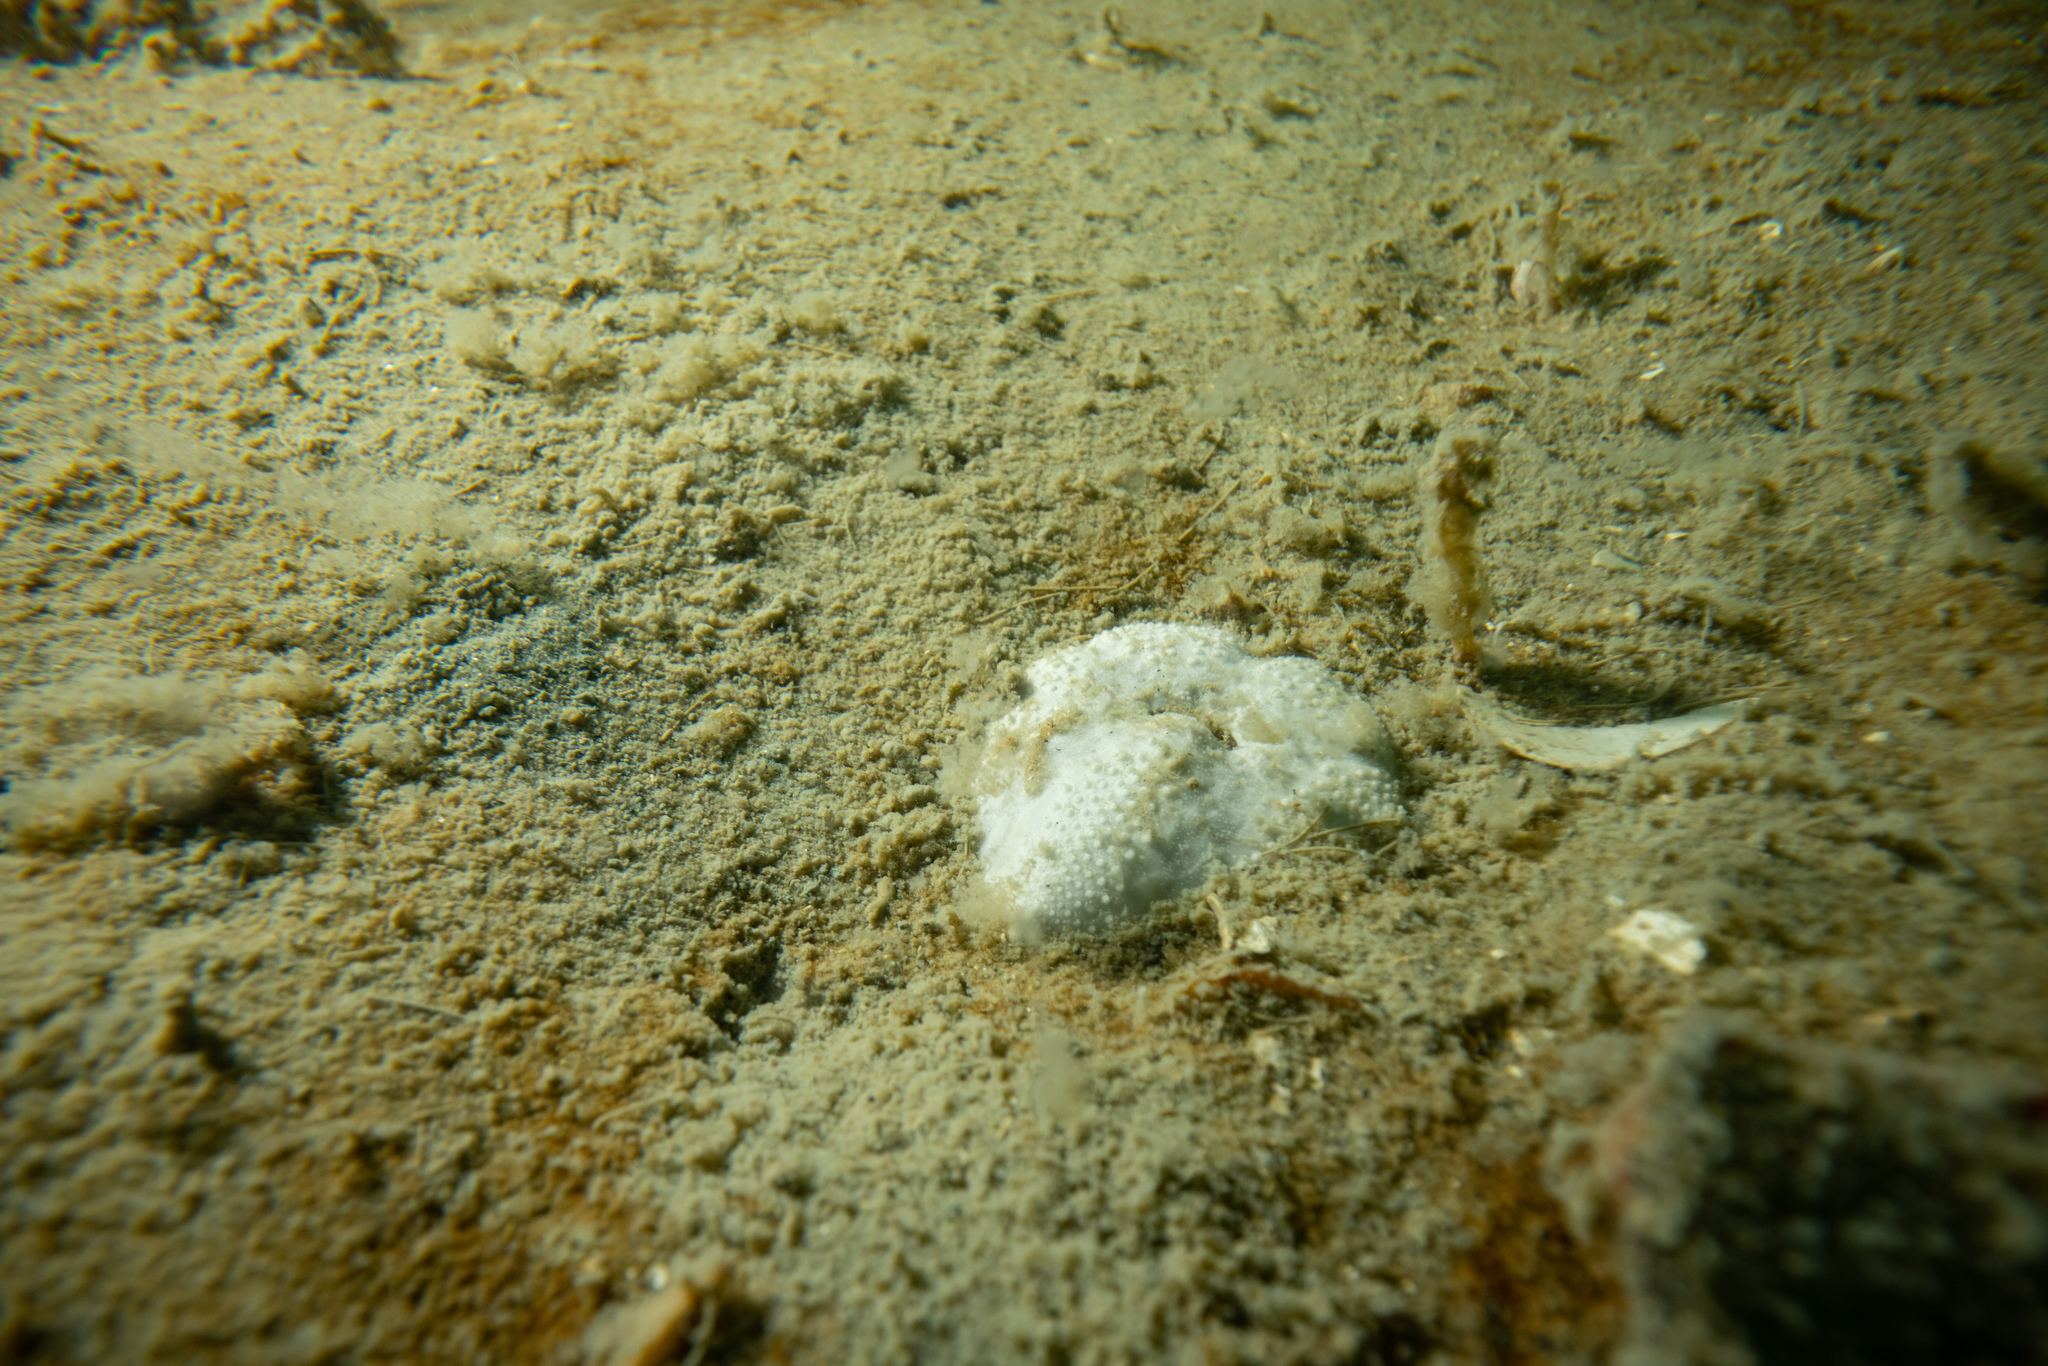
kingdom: Animalia
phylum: Echinodermata
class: Echinoidea
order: Spatangoida
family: Loveniidae
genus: Echinocardium
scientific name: Echinocardium cordatum
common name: Heart-urchin
